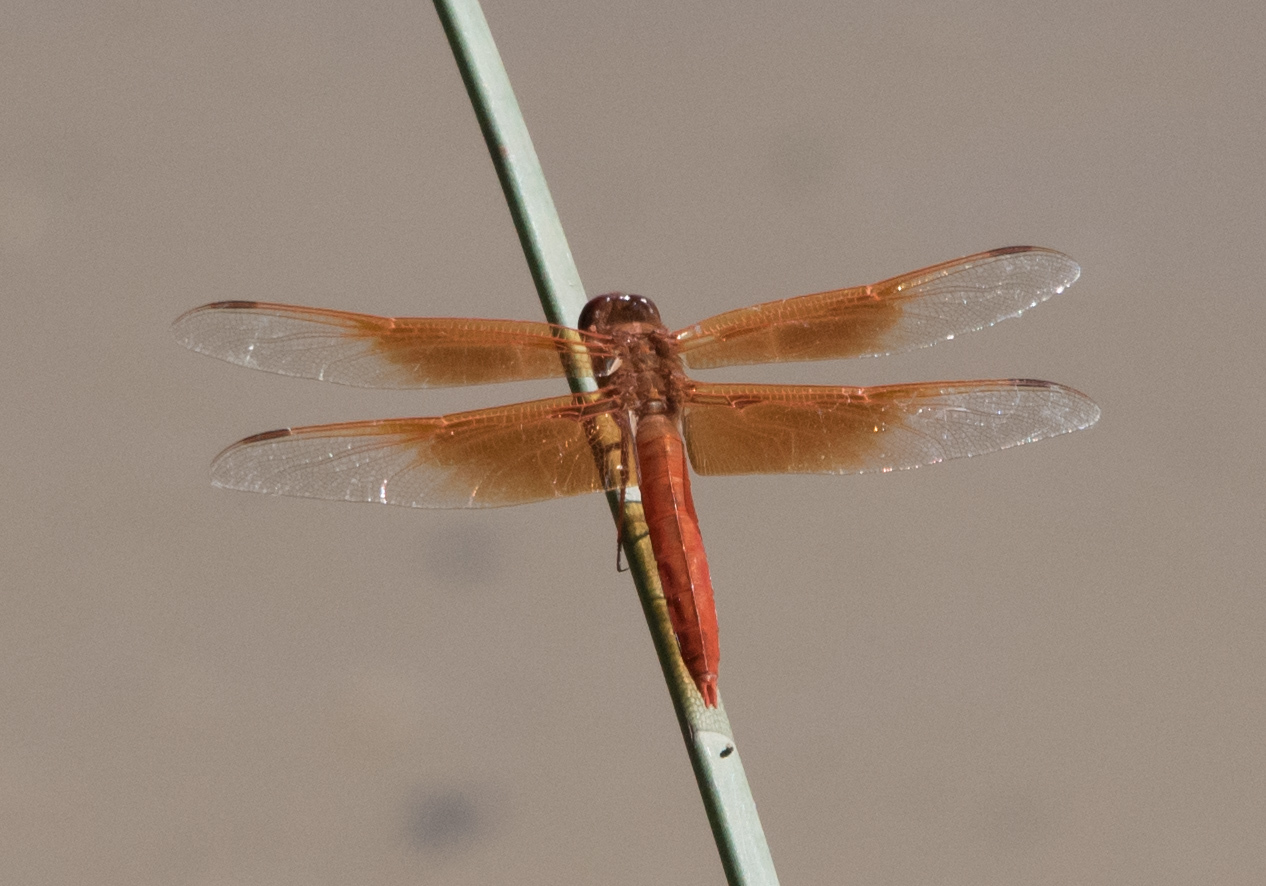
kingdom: Animalia
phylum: Arthropoda
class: Insecta
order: Odonata
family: Libellulidae
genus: Libellula
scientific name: Libellula saturata
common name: Flame skimmer
